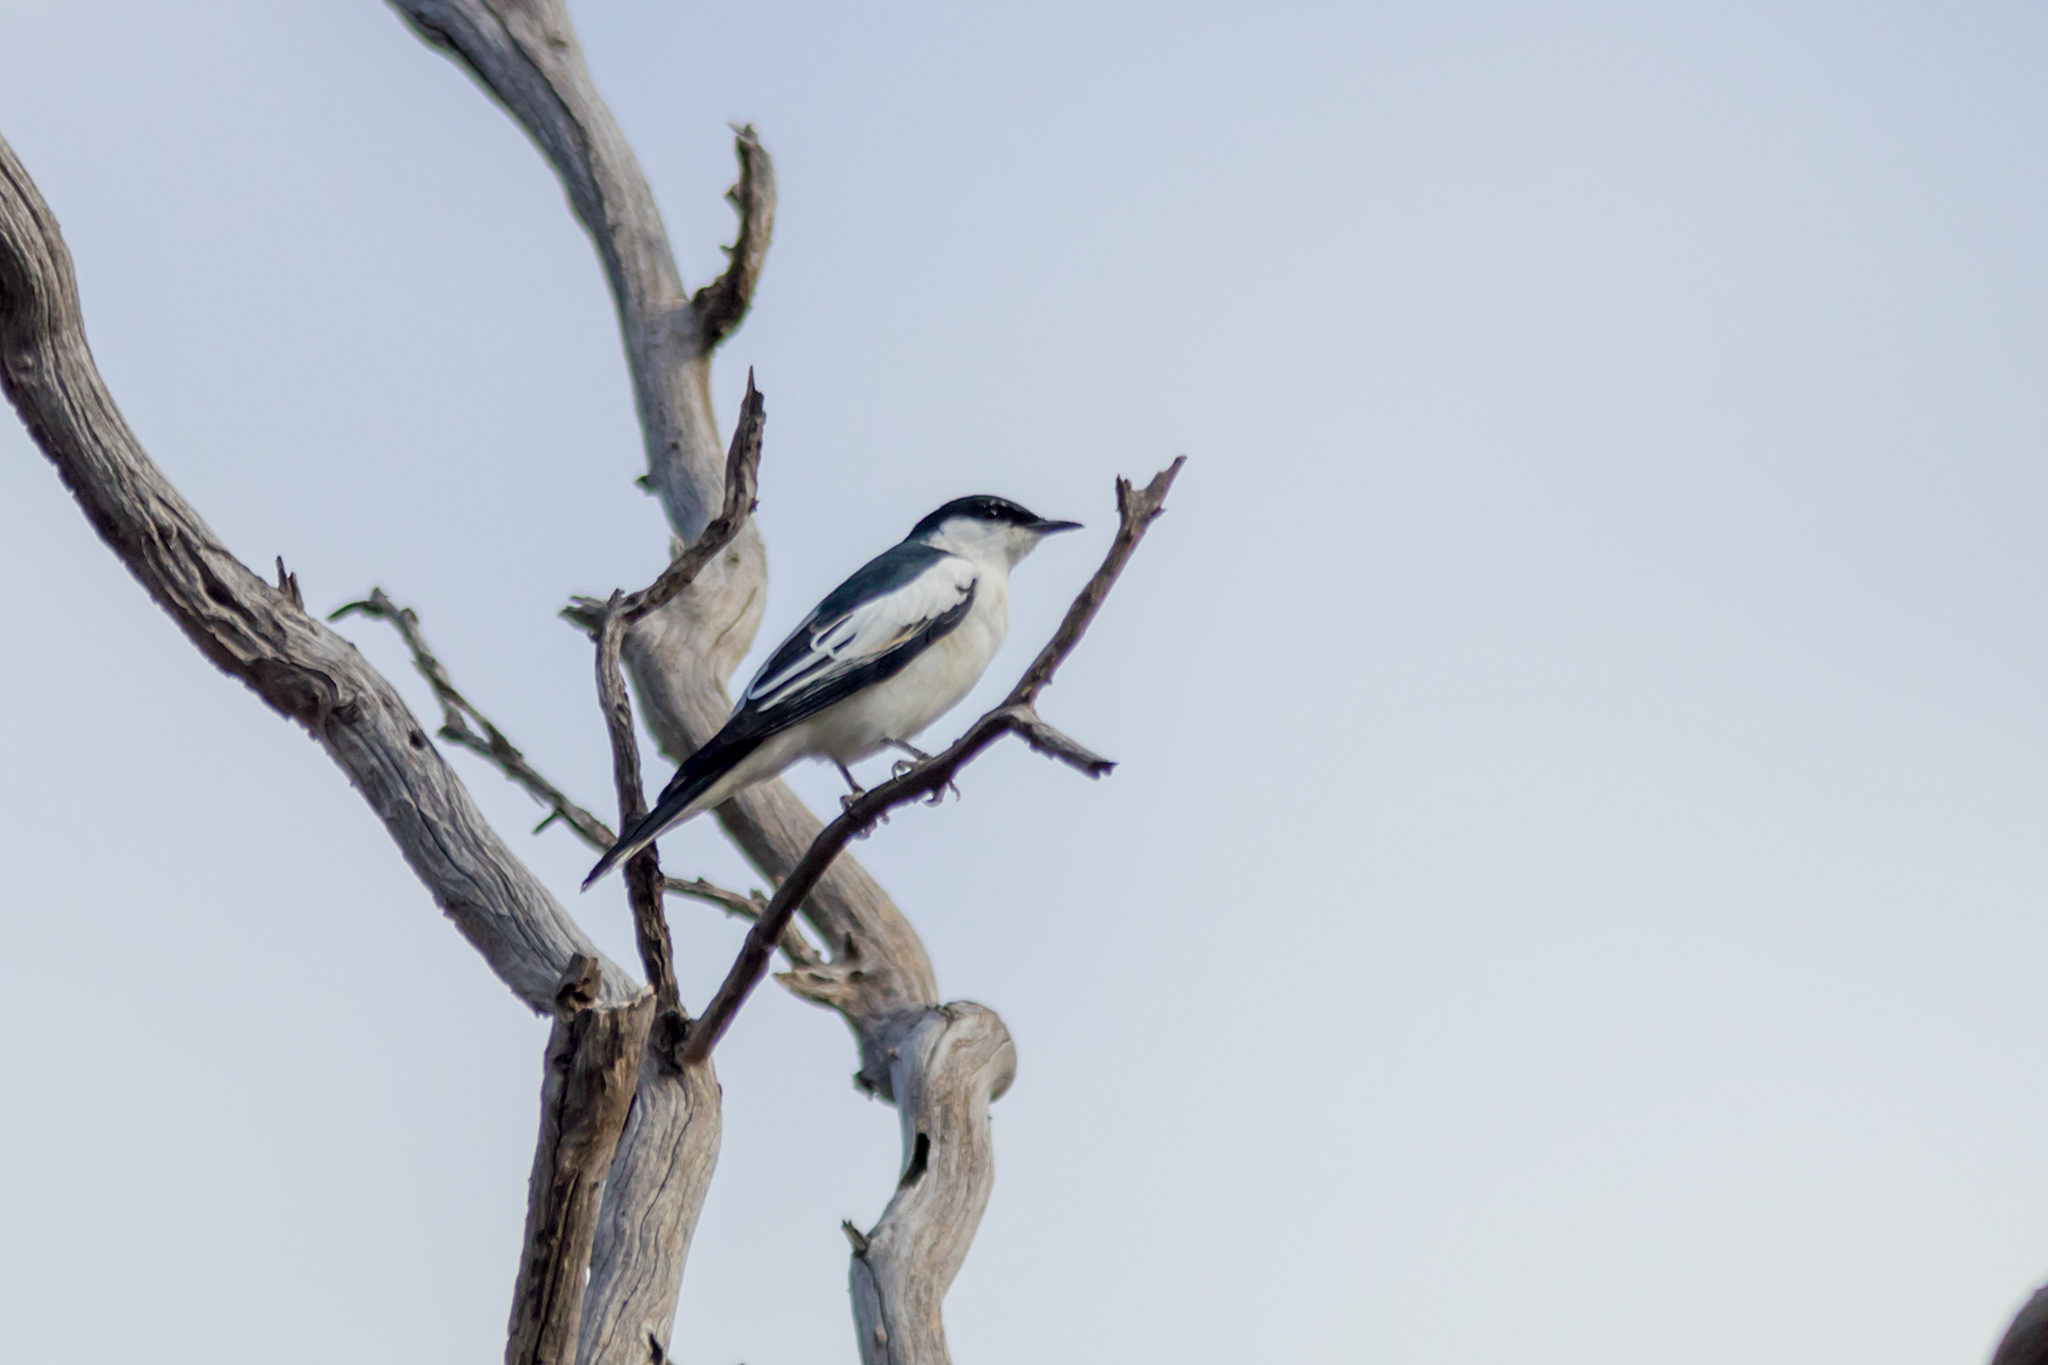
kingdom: Animalia
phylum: Chordata
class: Aves
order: Passeriformes
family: Campephagidae
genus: Lalage
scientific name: Lalage tricolor
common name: White-winged triller
